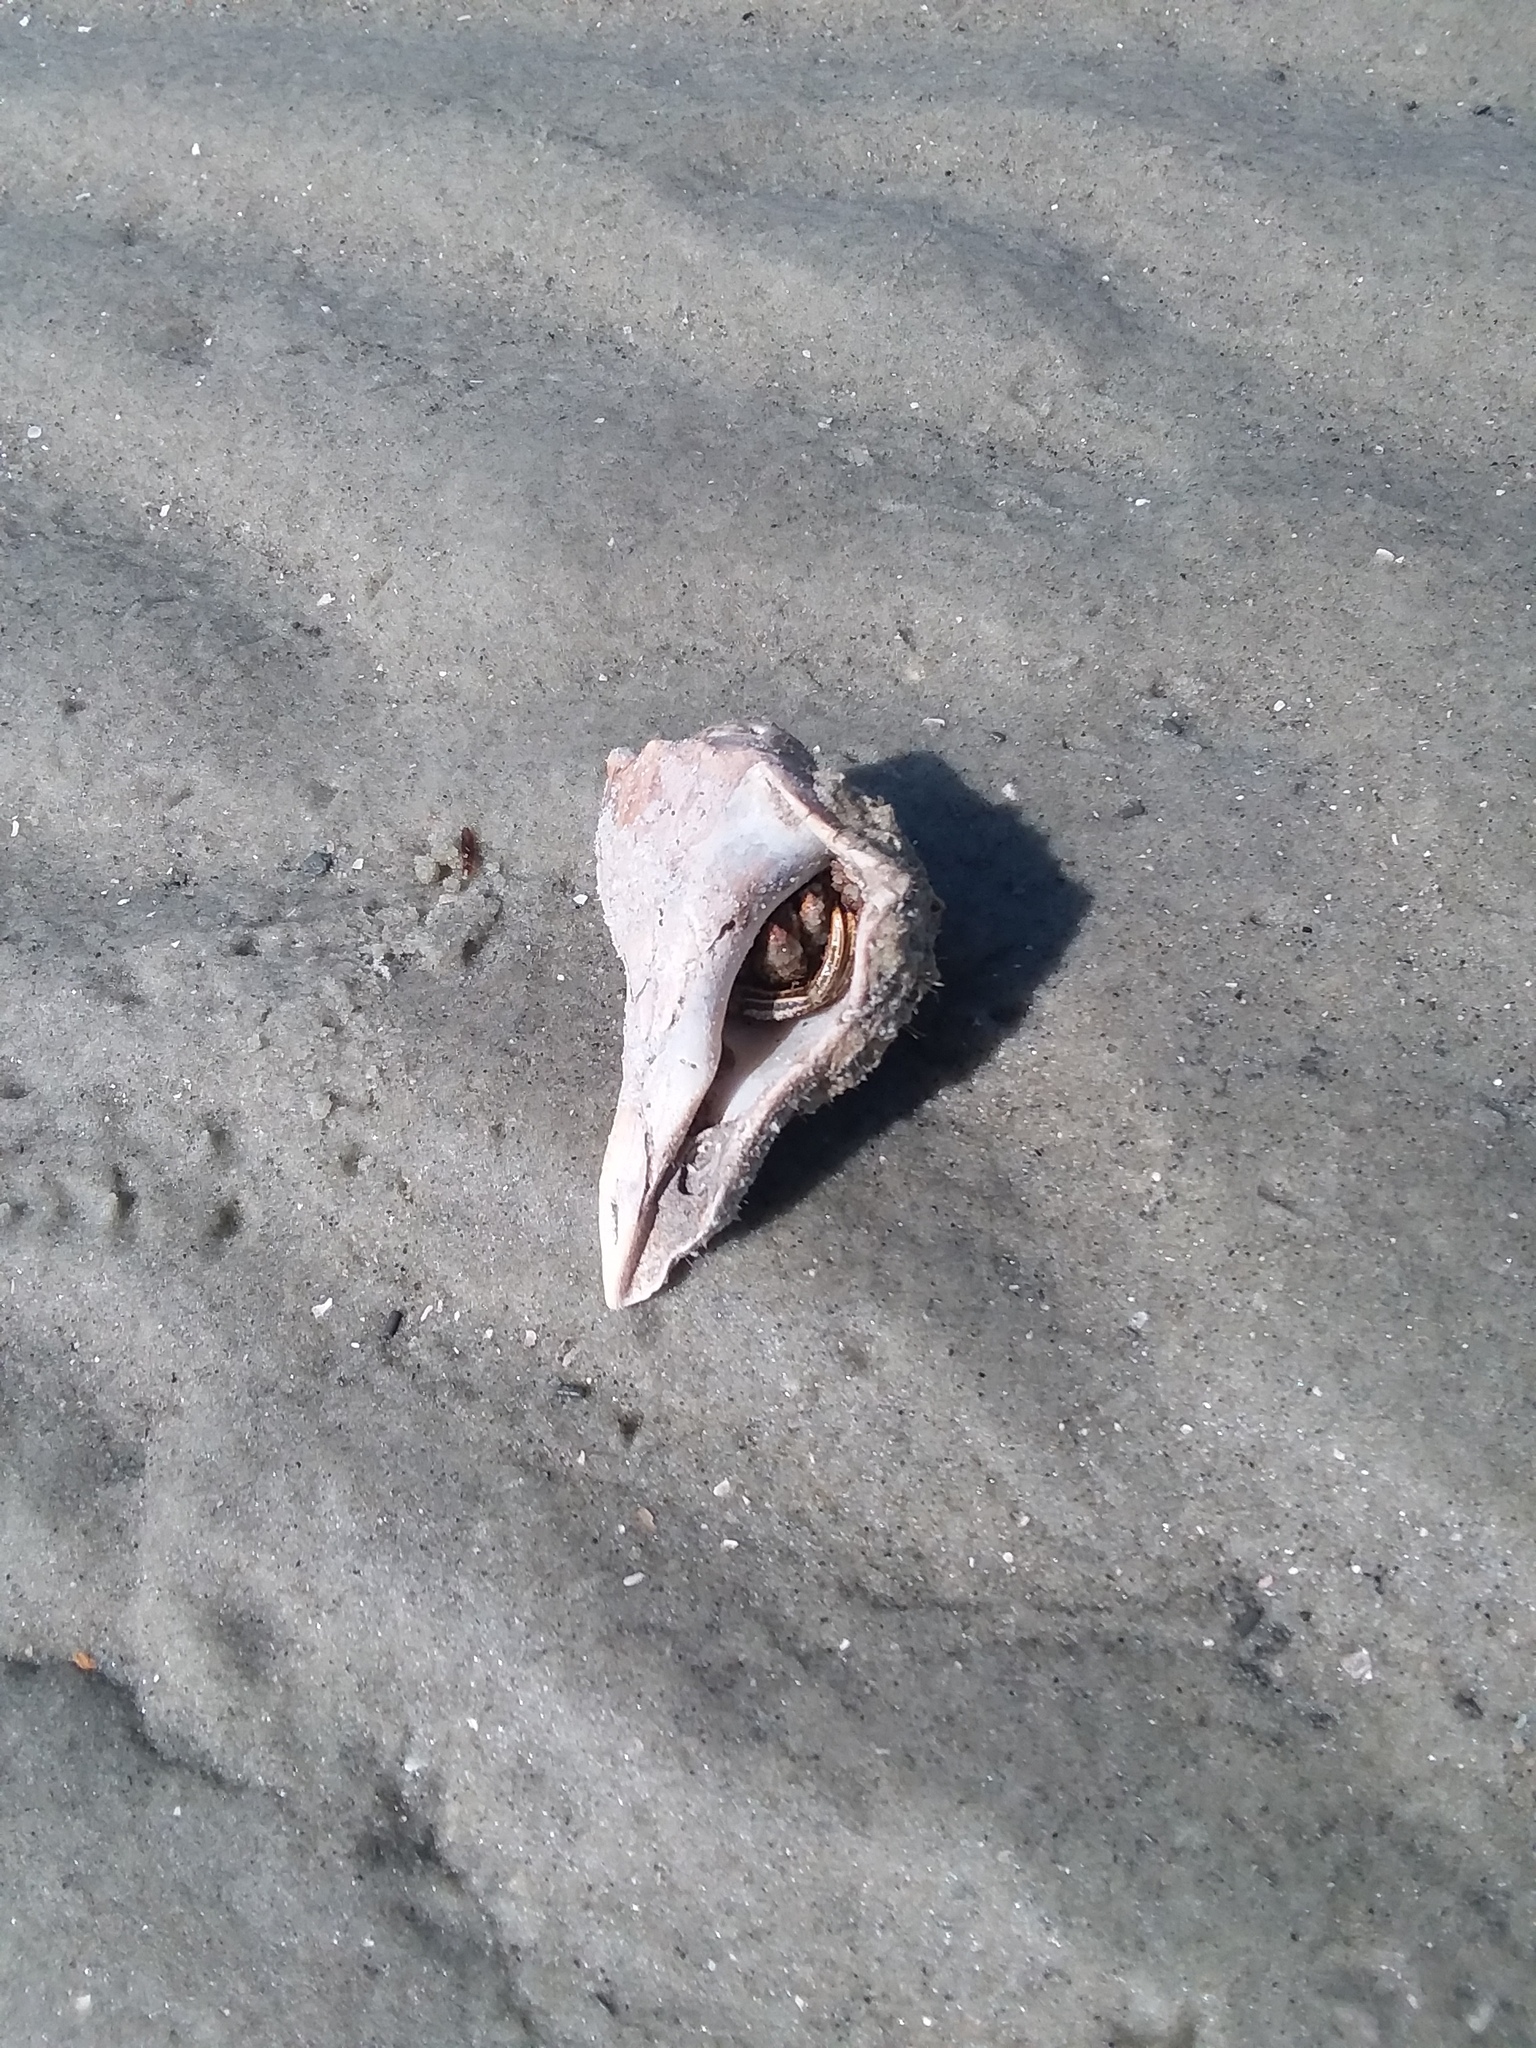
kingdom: Animalia
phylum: Arthropoda
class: Malacostraca
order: Decapoda
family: Diogenidae
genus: Clibanarius
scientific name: Clibanarius vittatus
